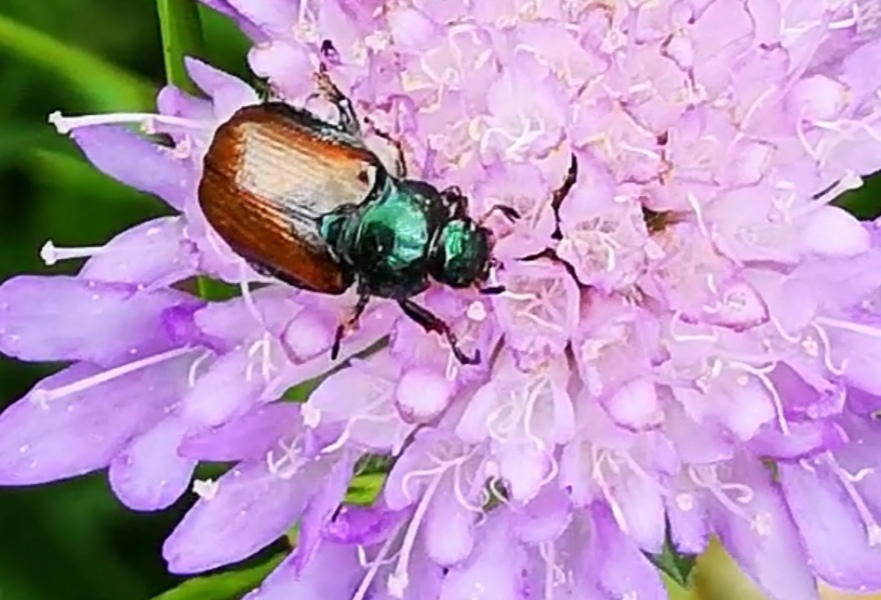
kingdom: Animalia
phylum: Arthropoda
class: Insecta
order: Coleoptera
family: Scarabaeidae
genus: Phyllopertha
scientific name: Phyllopertha horticola
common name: Garden chafer
